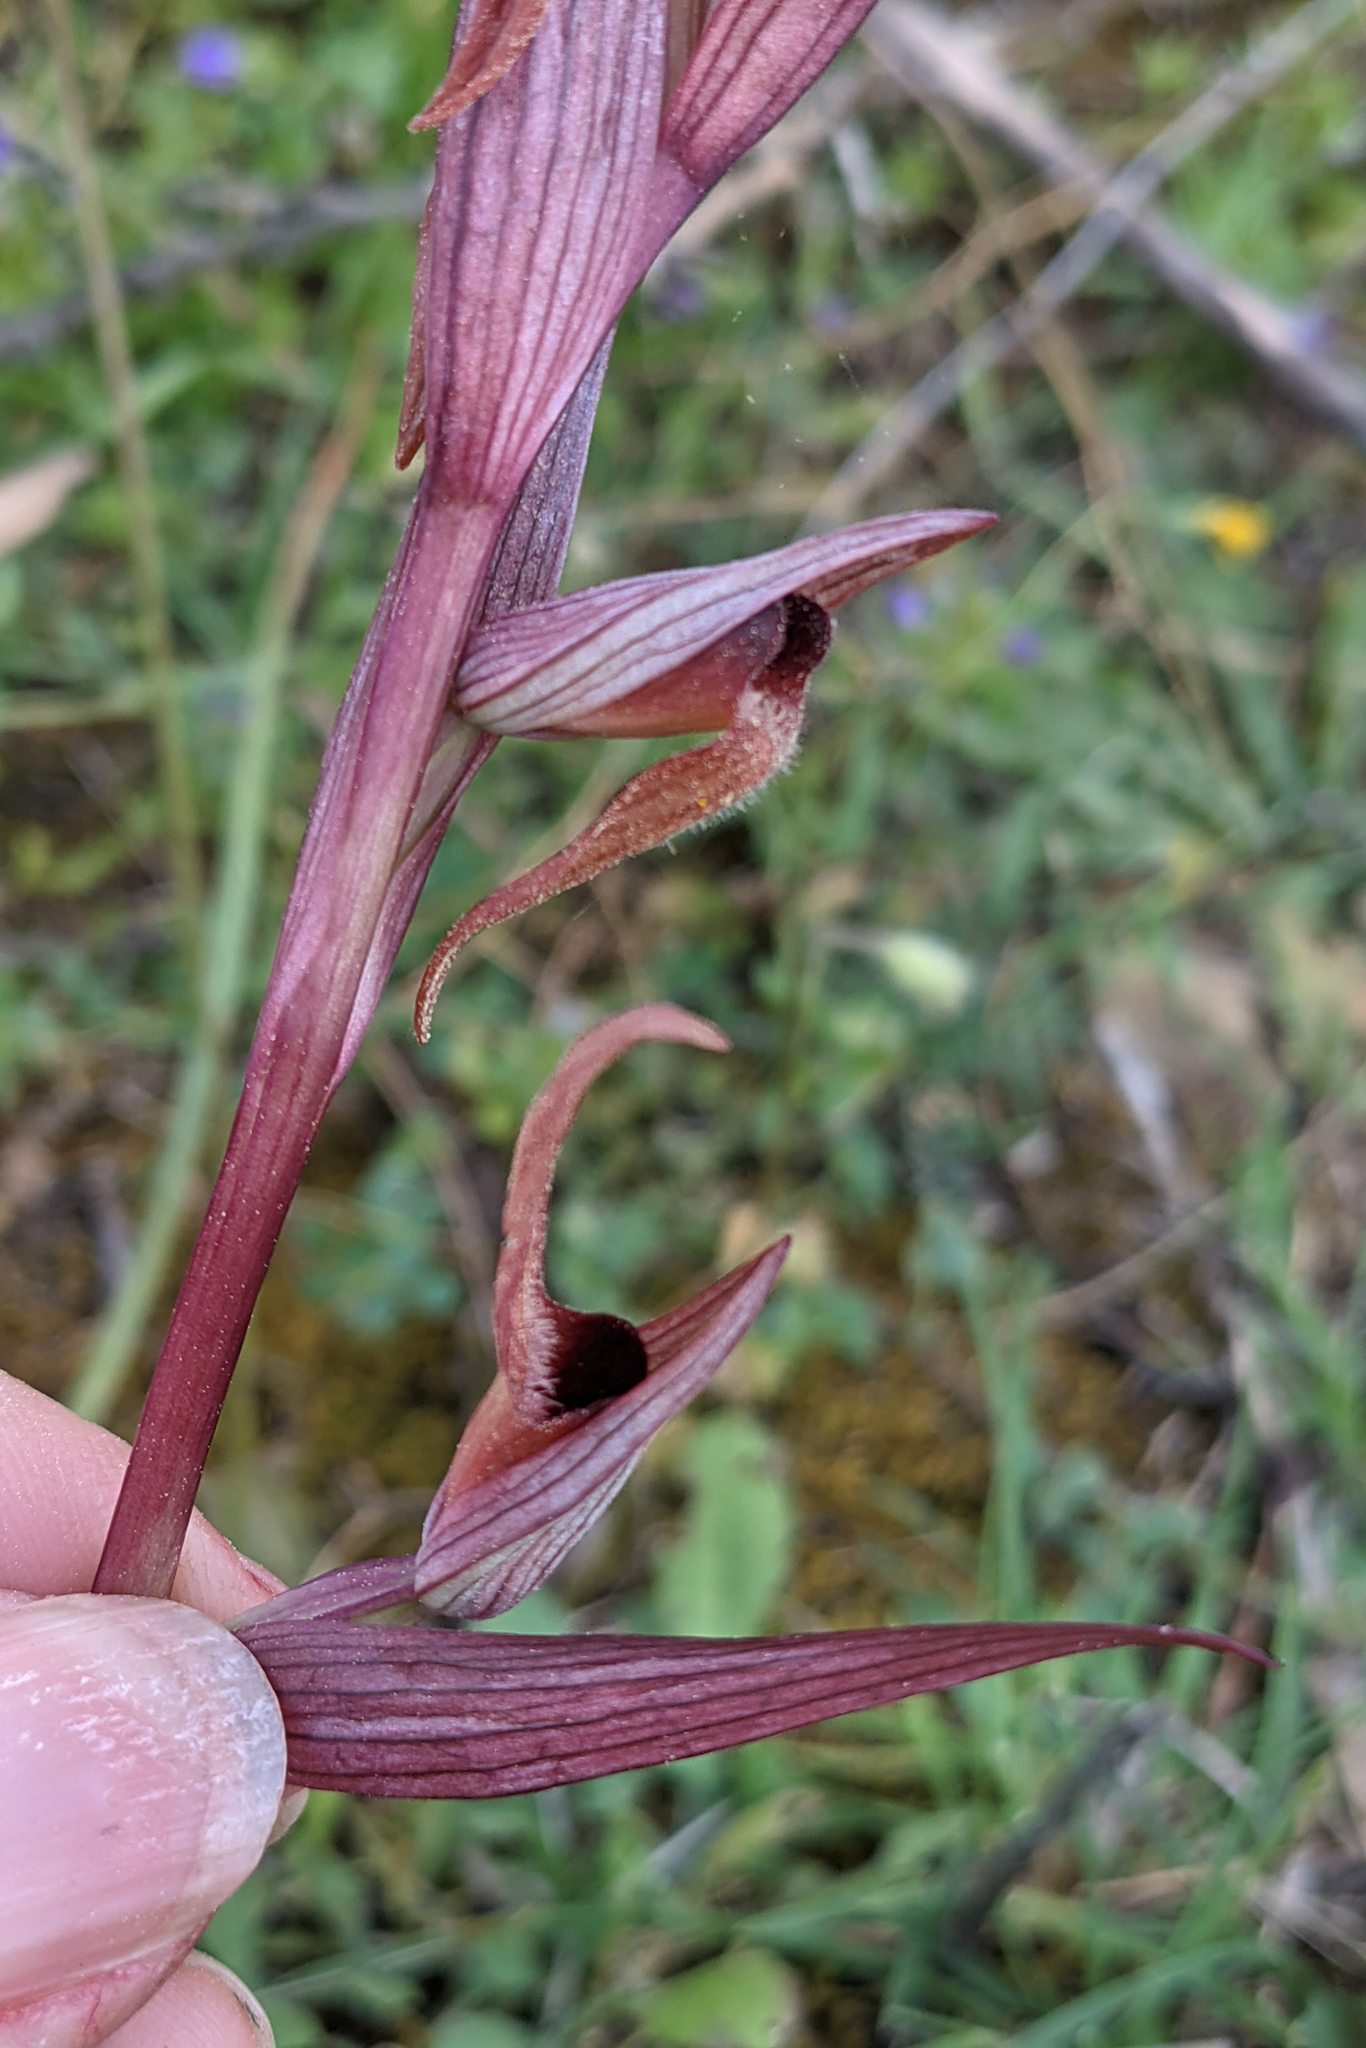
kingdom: Plantae
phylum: Tracheophyta
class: Liliopsida
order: Asparagales
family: Orchidaceae
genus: Serapias
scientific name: Serapias vomeracea
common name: Long-lipped tongue-orchid
